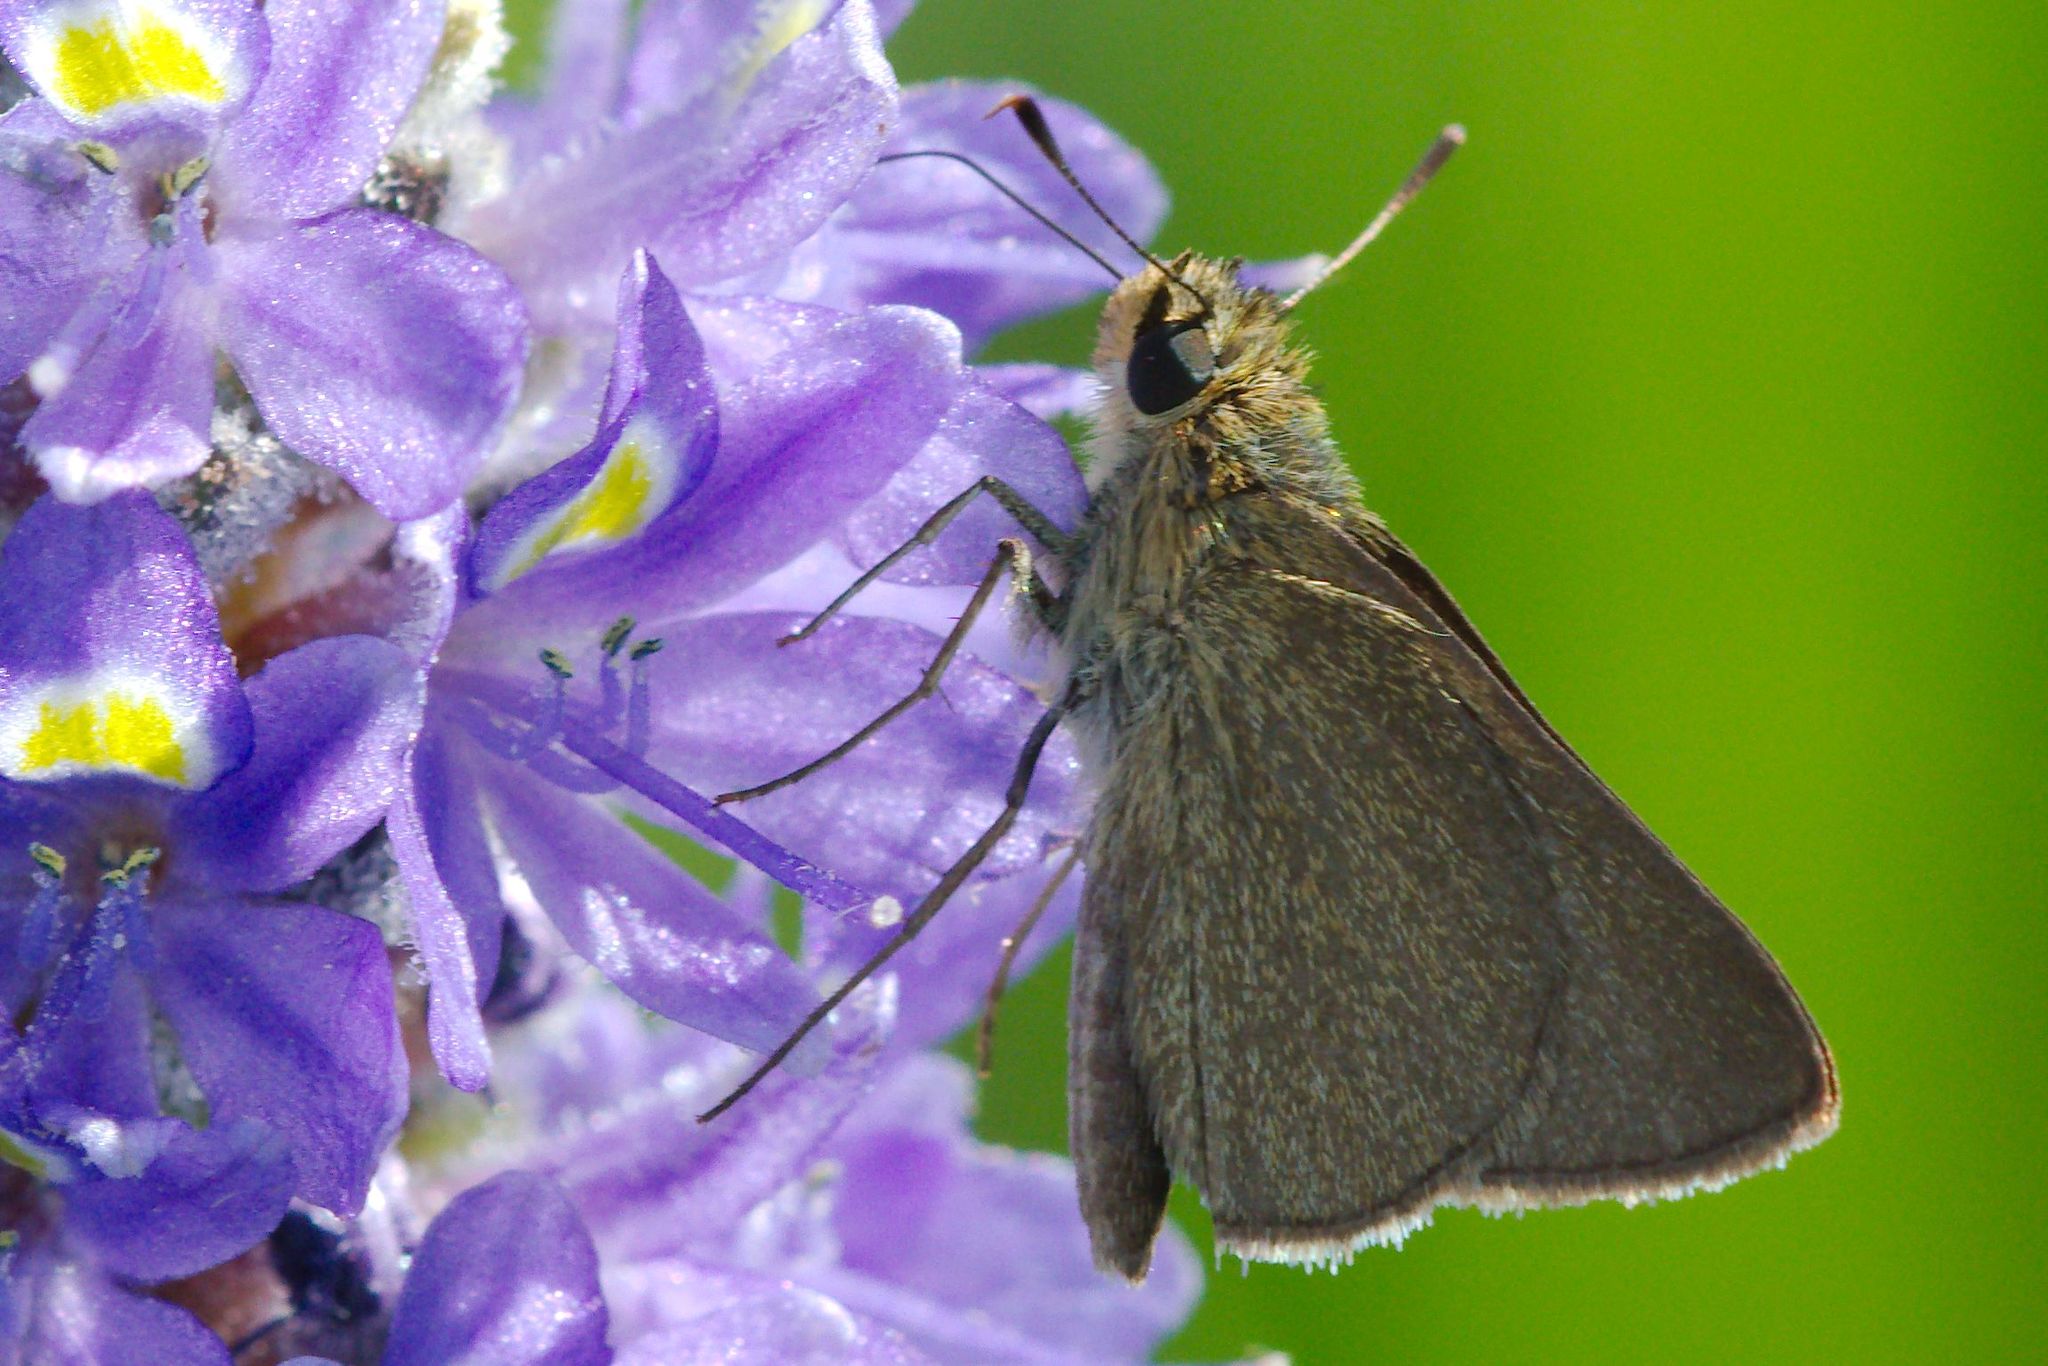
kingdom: Animalia
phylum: Arthropoda
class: Insecta
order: Lepidoptera
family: Hesperiidae
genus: Nastra
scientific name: Nastra lherminier
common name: Swarthy skipper
